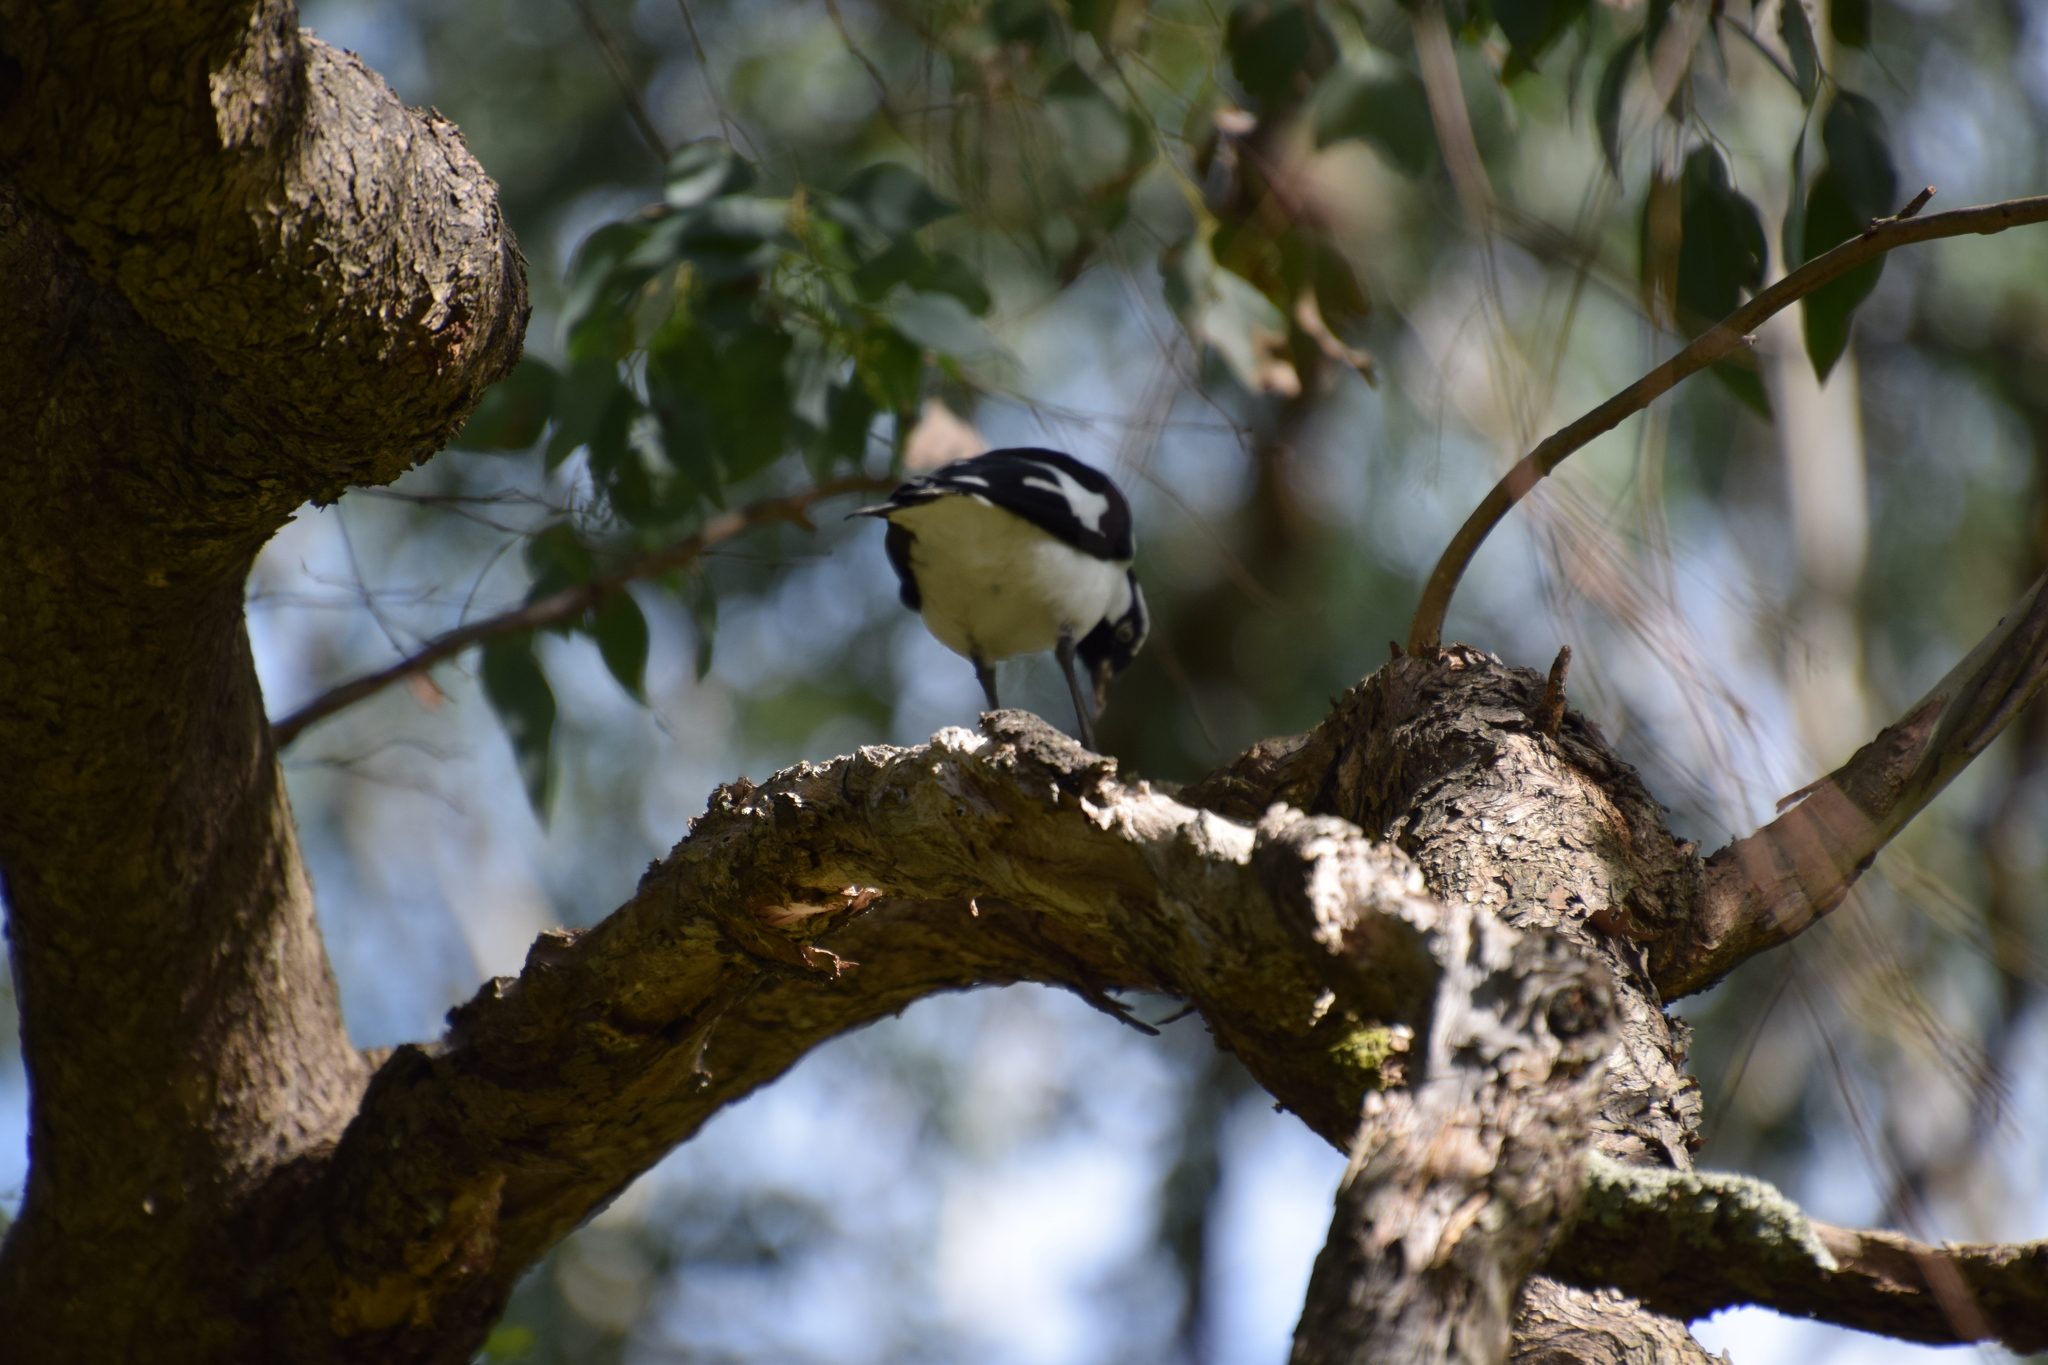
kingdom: Animalia
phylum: Chordata
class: Aves
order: Passeriformes
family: Monarchidae
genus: Grallina
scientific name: Grallina cyanoleuca
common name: Magpie-lark
